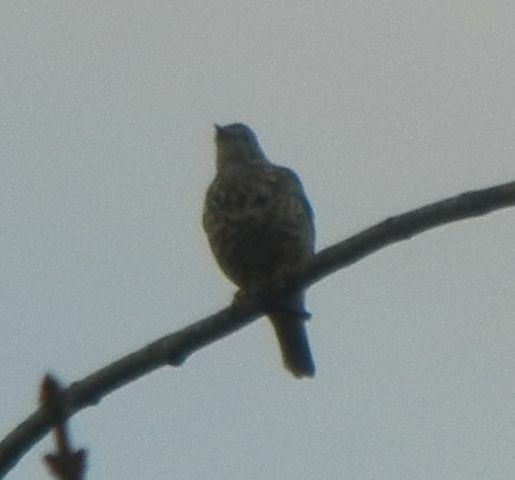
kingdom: Animalia
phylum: Chordata
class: Aves
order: Passeriformes
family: Turdidae
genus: Turdus
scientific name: Turdus viscivorus
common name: Mistle thrush
